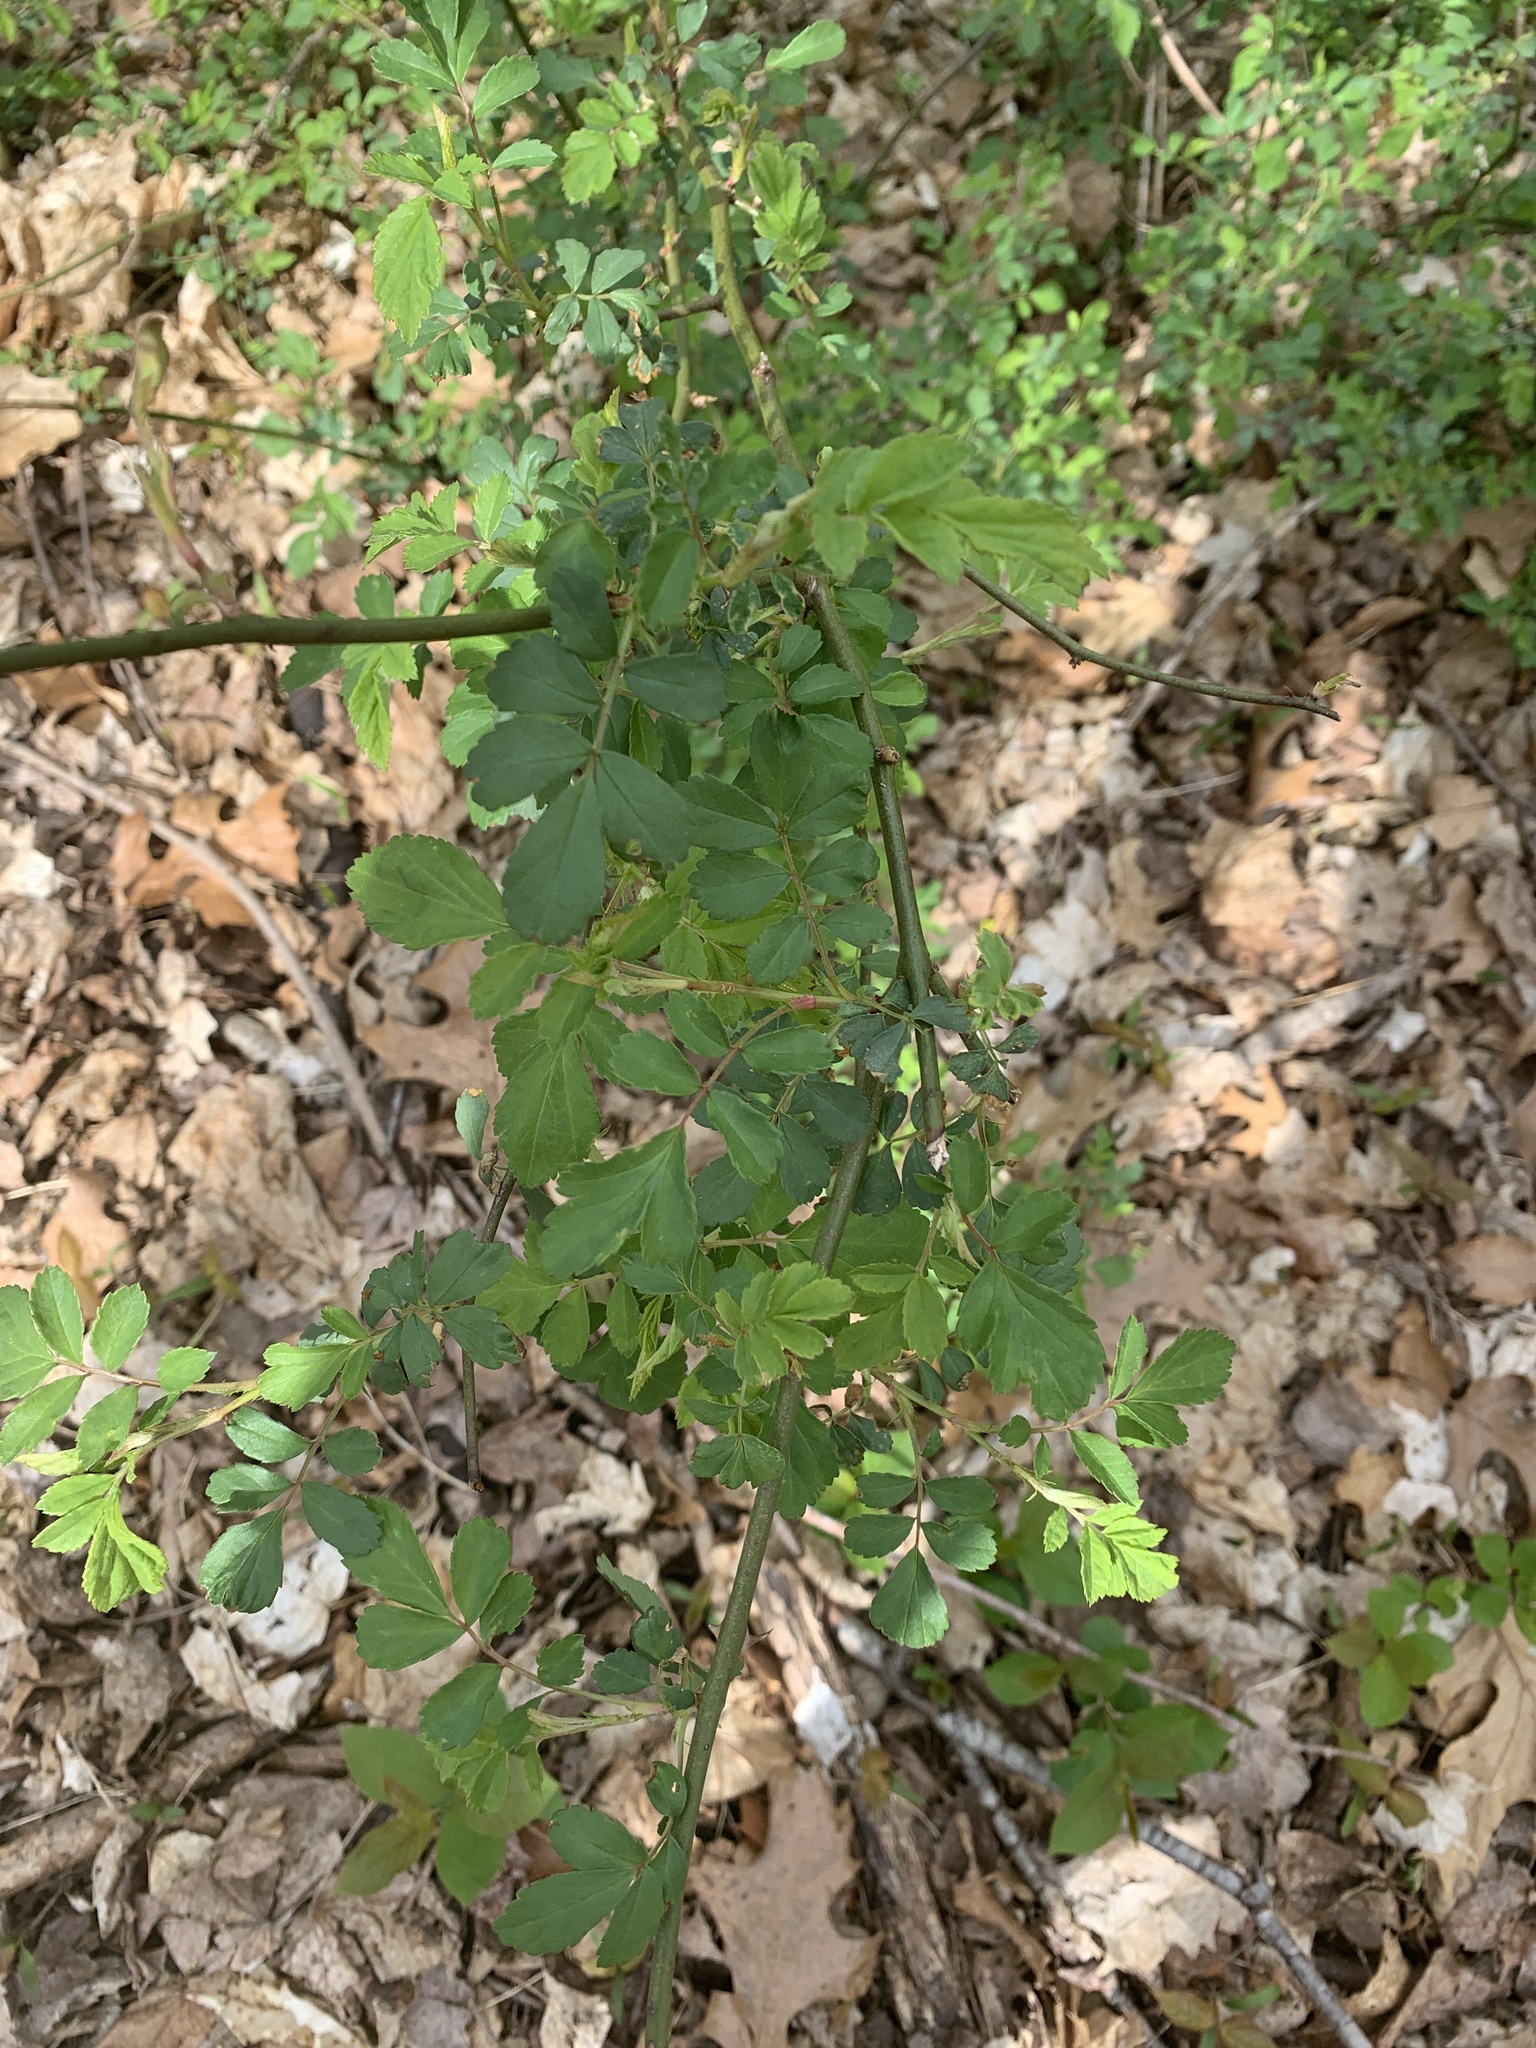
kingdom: Plantae
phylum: Tracheophyta
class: Magnoliopsida
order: Rosales
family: Rosaceae
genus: Rosa
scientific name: Rosa multiflora
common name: Multiflora rose
